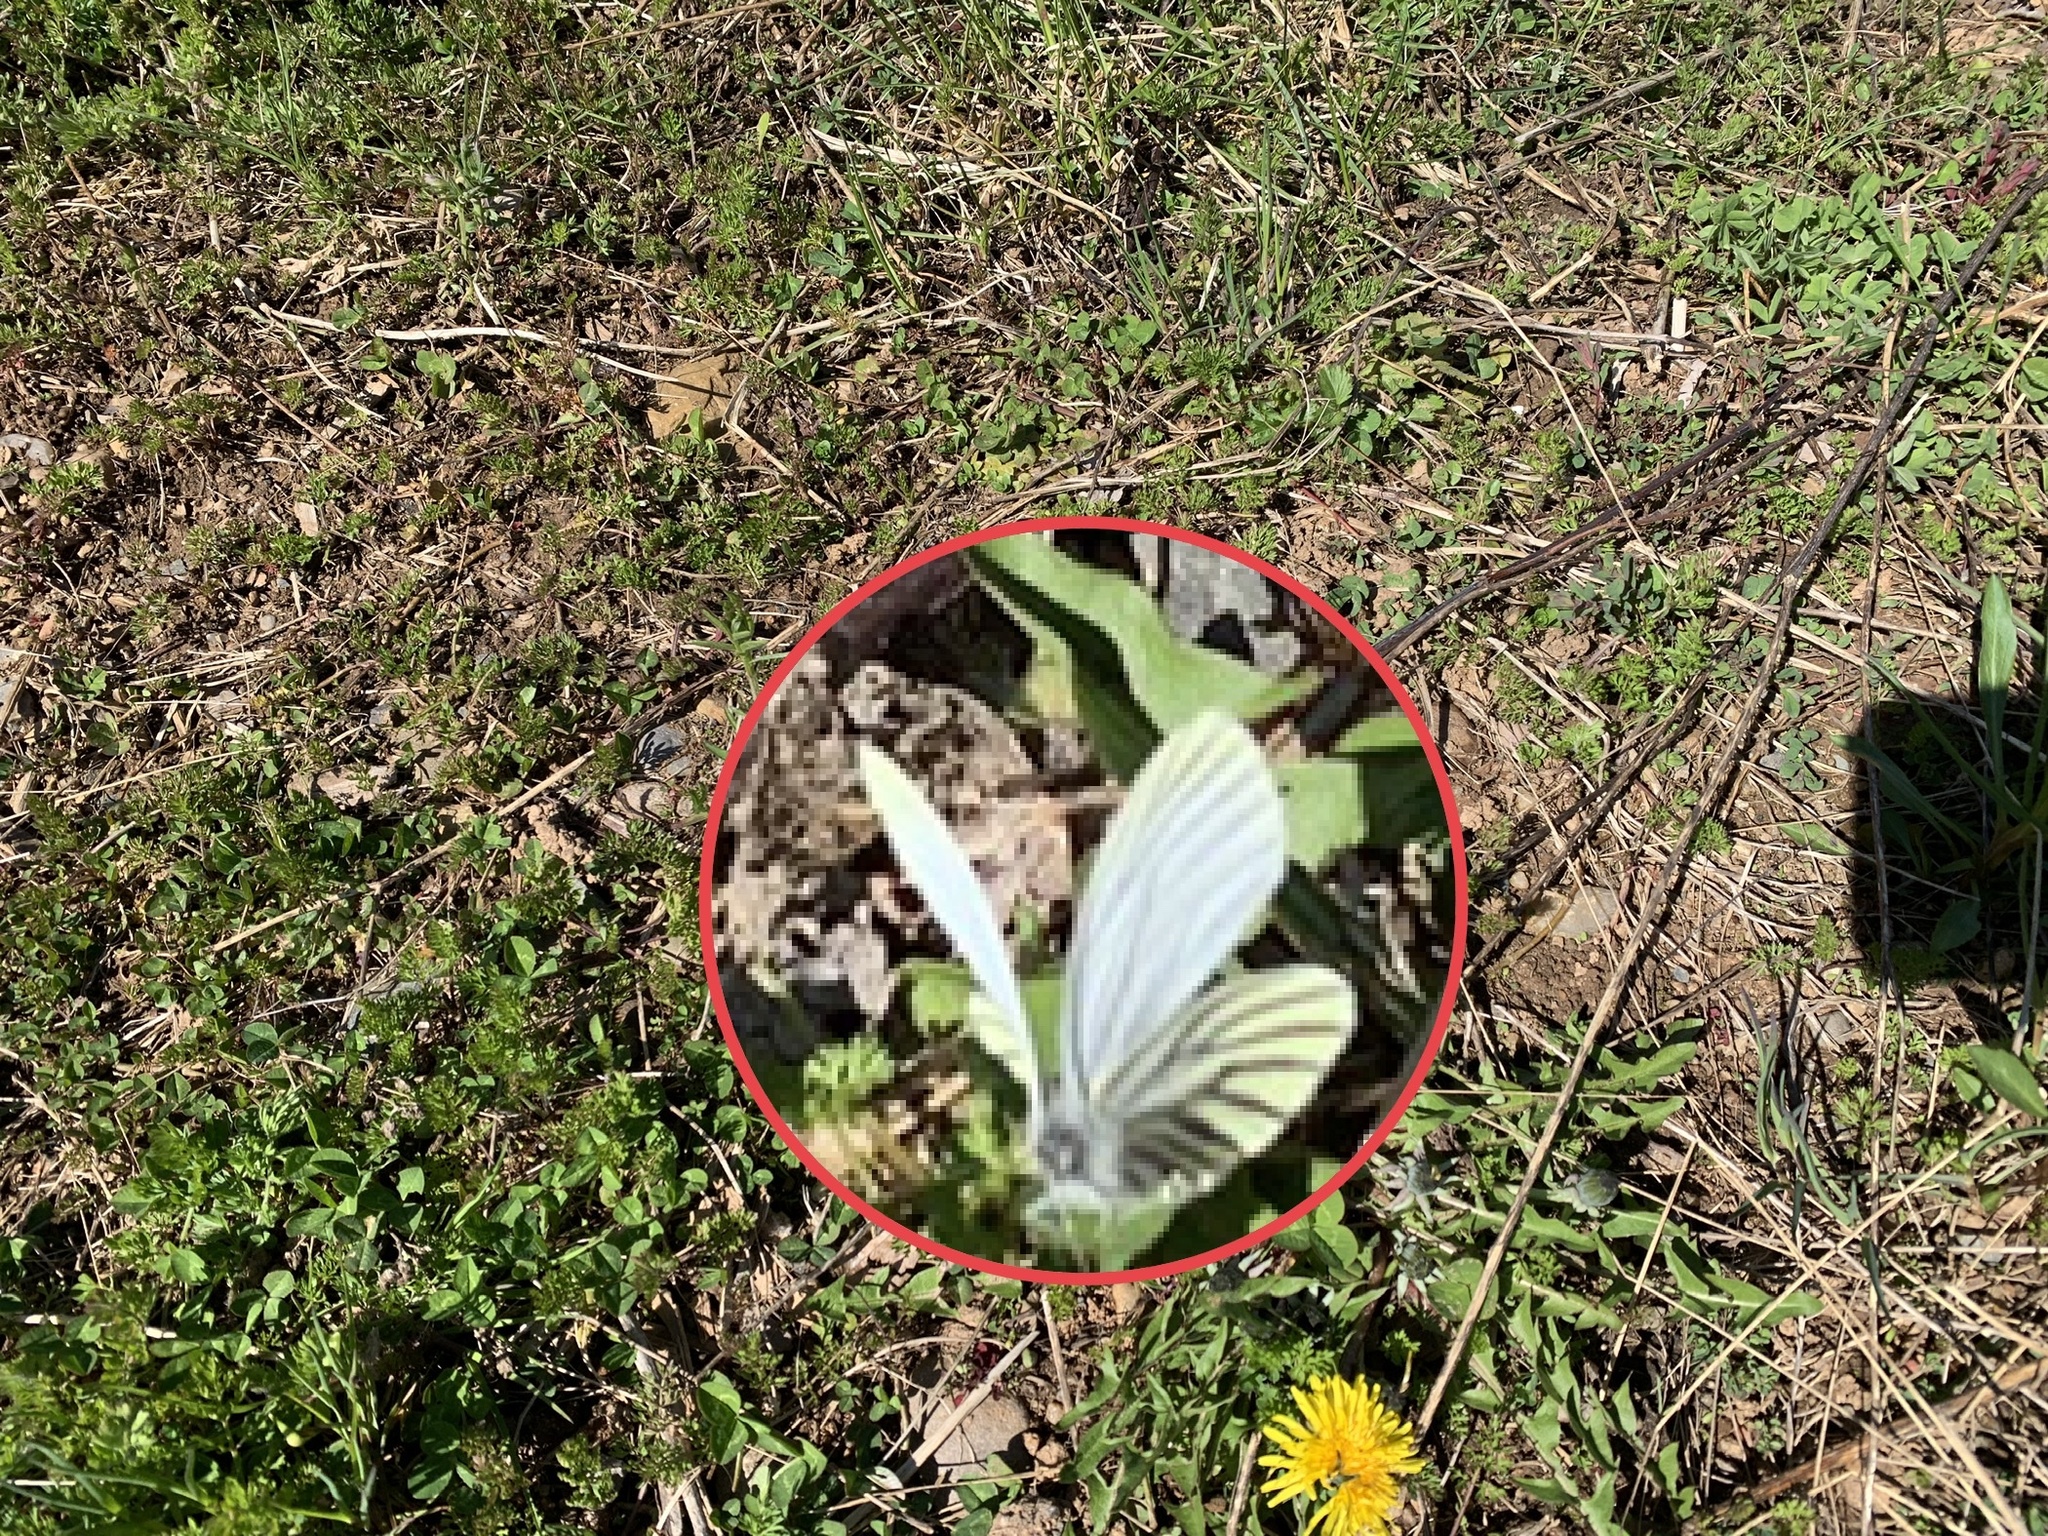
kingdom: Animalia
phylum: Arthropoda
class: Insecta
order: Lepidoptera
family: Pieridae
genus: Pieris
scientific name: Pieris oleracea
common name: Mustard white
